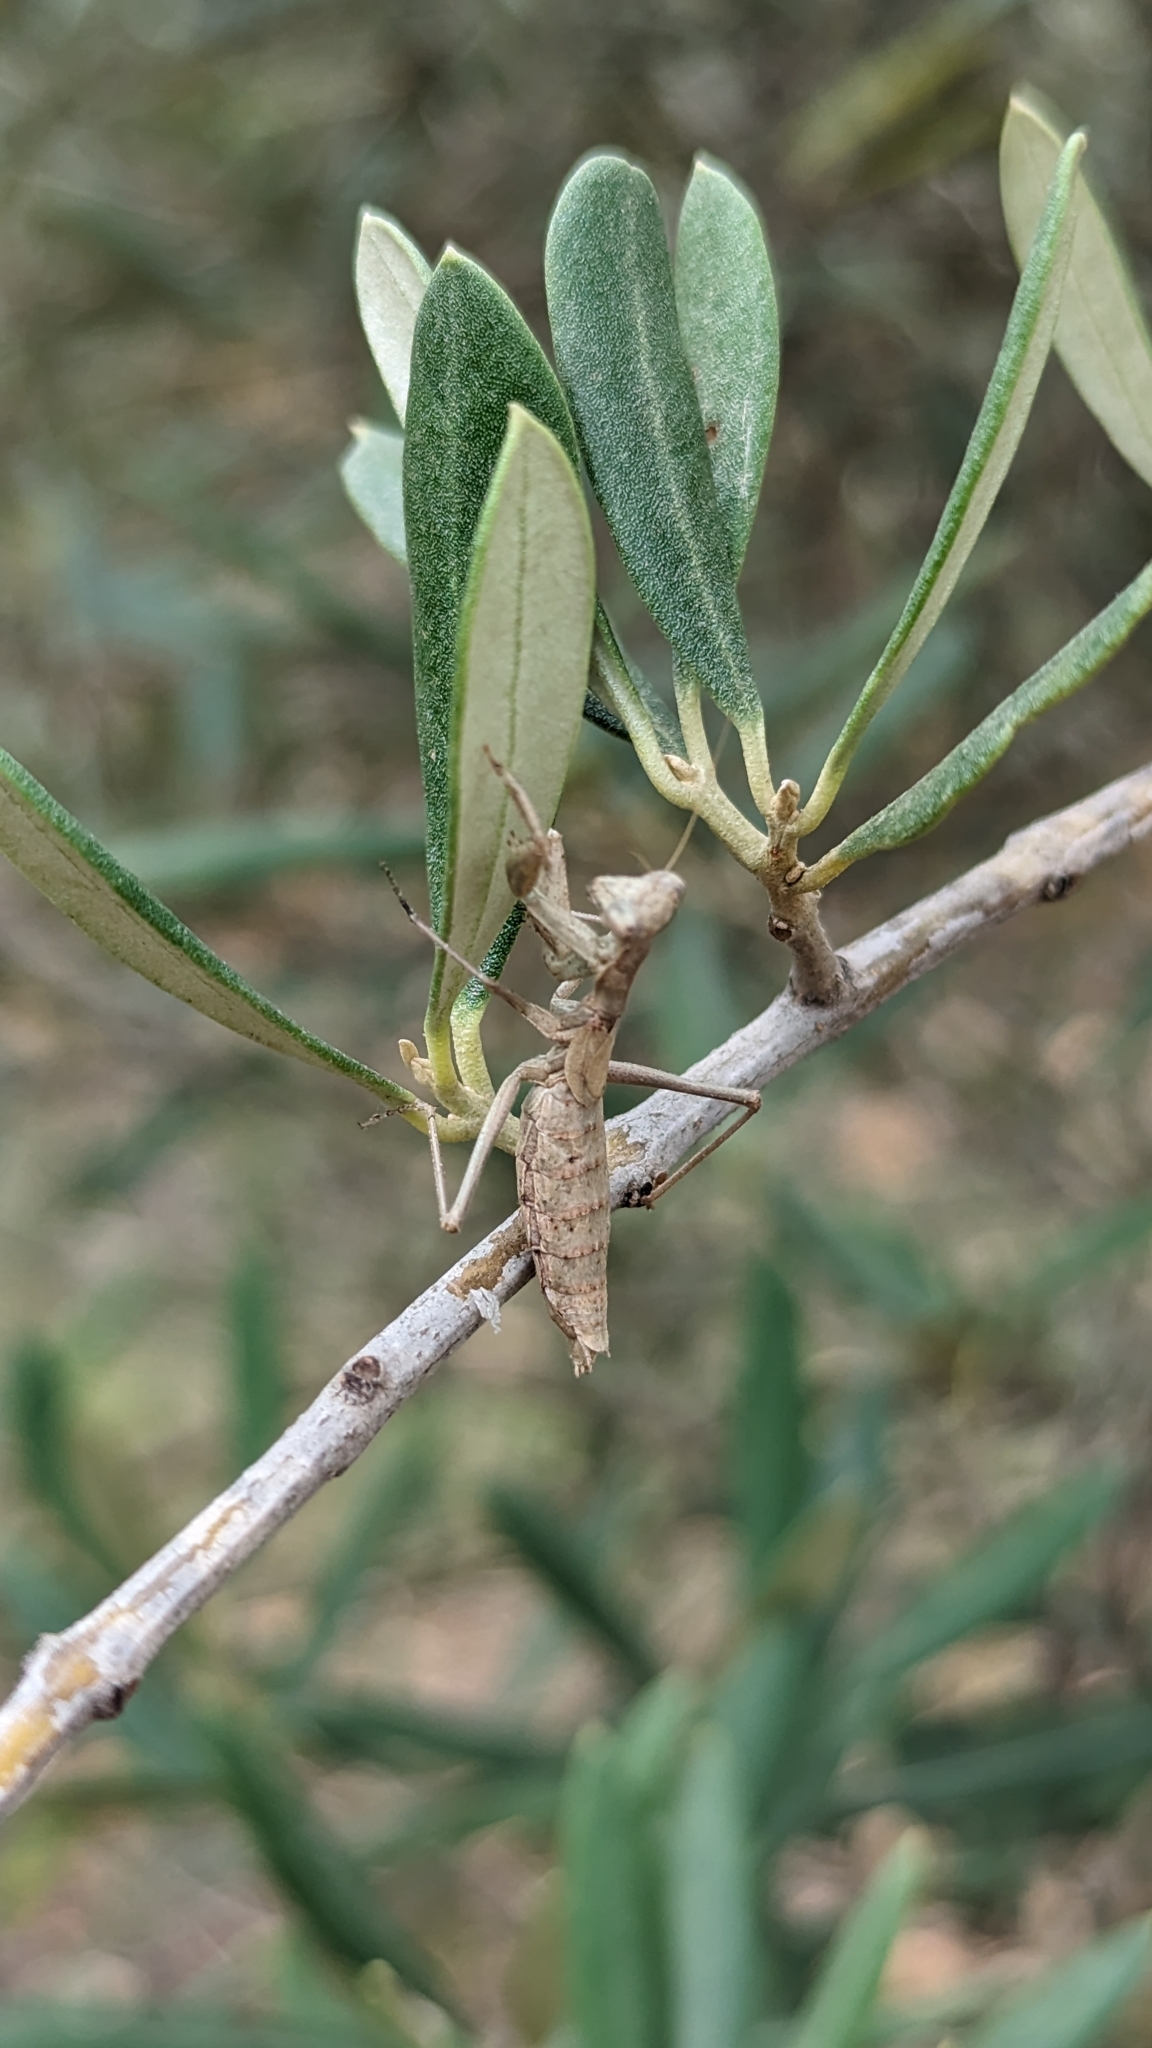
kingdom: Animalia
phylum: Arthropoda
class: Insecta
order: Mantodea
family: Amelidae
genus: Ameles
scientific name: Ameles decolor
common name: Dwarf mantis
